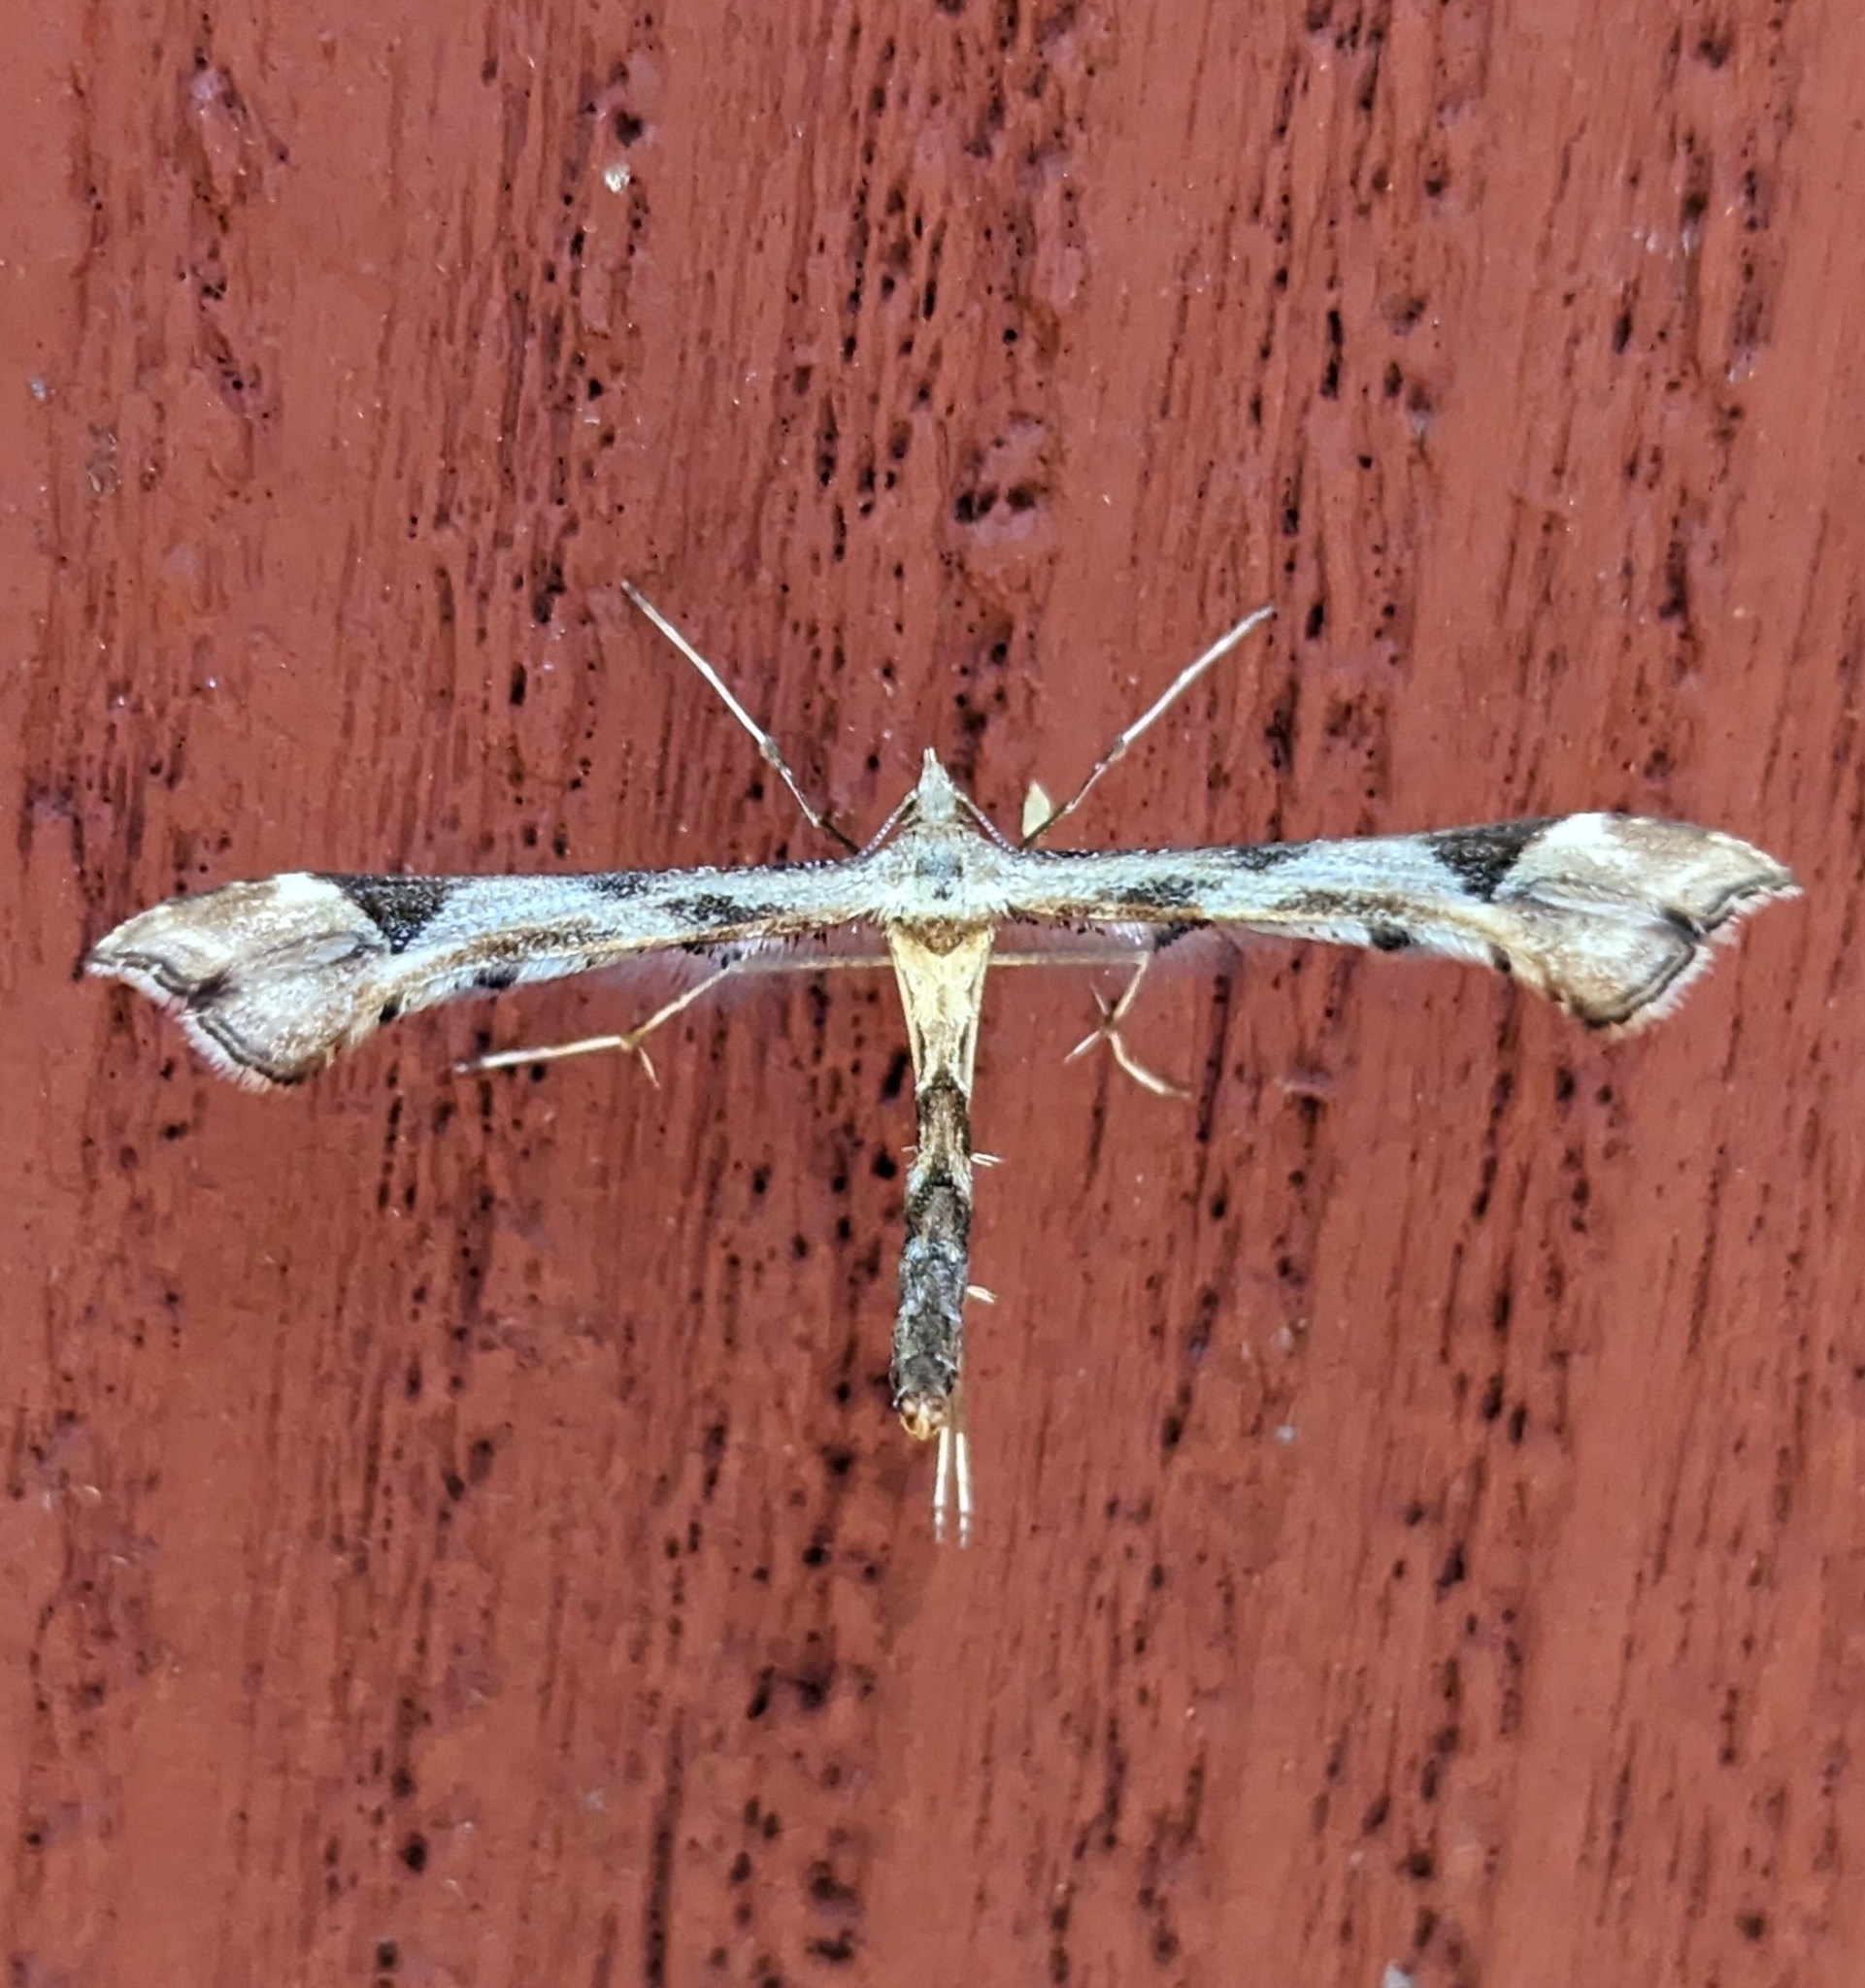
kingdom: Animalia
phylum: Arthropoda
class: Insecta
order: Lepidoptera
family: Pterophoridae
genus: Platyptilia
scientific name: Platyptilia carduidactylus
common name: Artichoke plume moth
